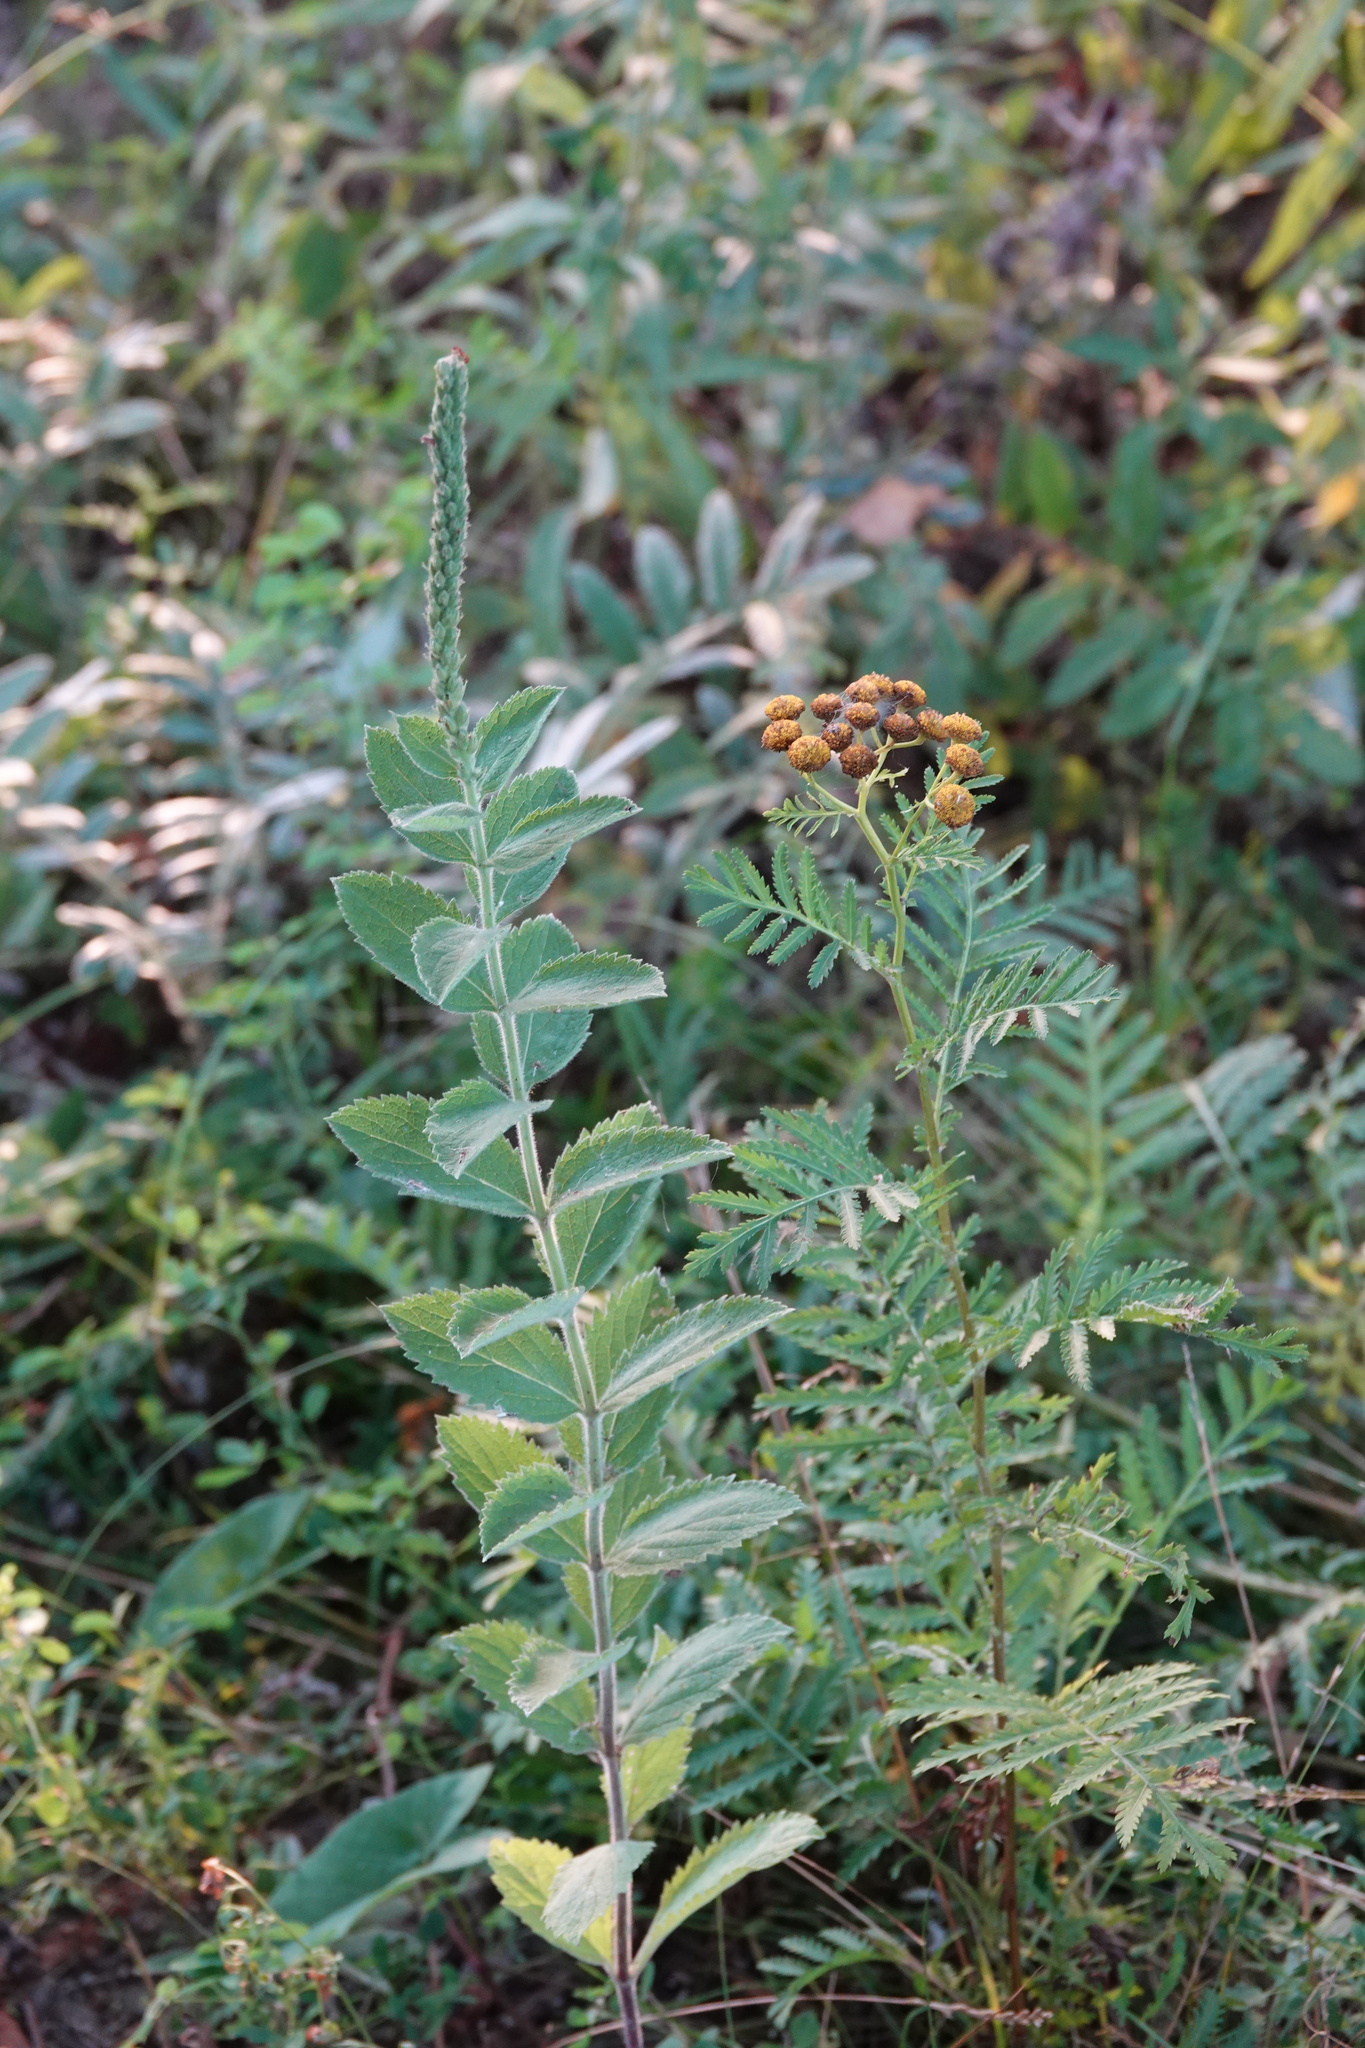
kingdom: Plantae
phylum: Tracheophyta
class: Magnoliopsida
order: Lamiales
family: Verbenaceae
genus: Verbena
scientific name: Verbena stricta
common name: Hoary vervain
